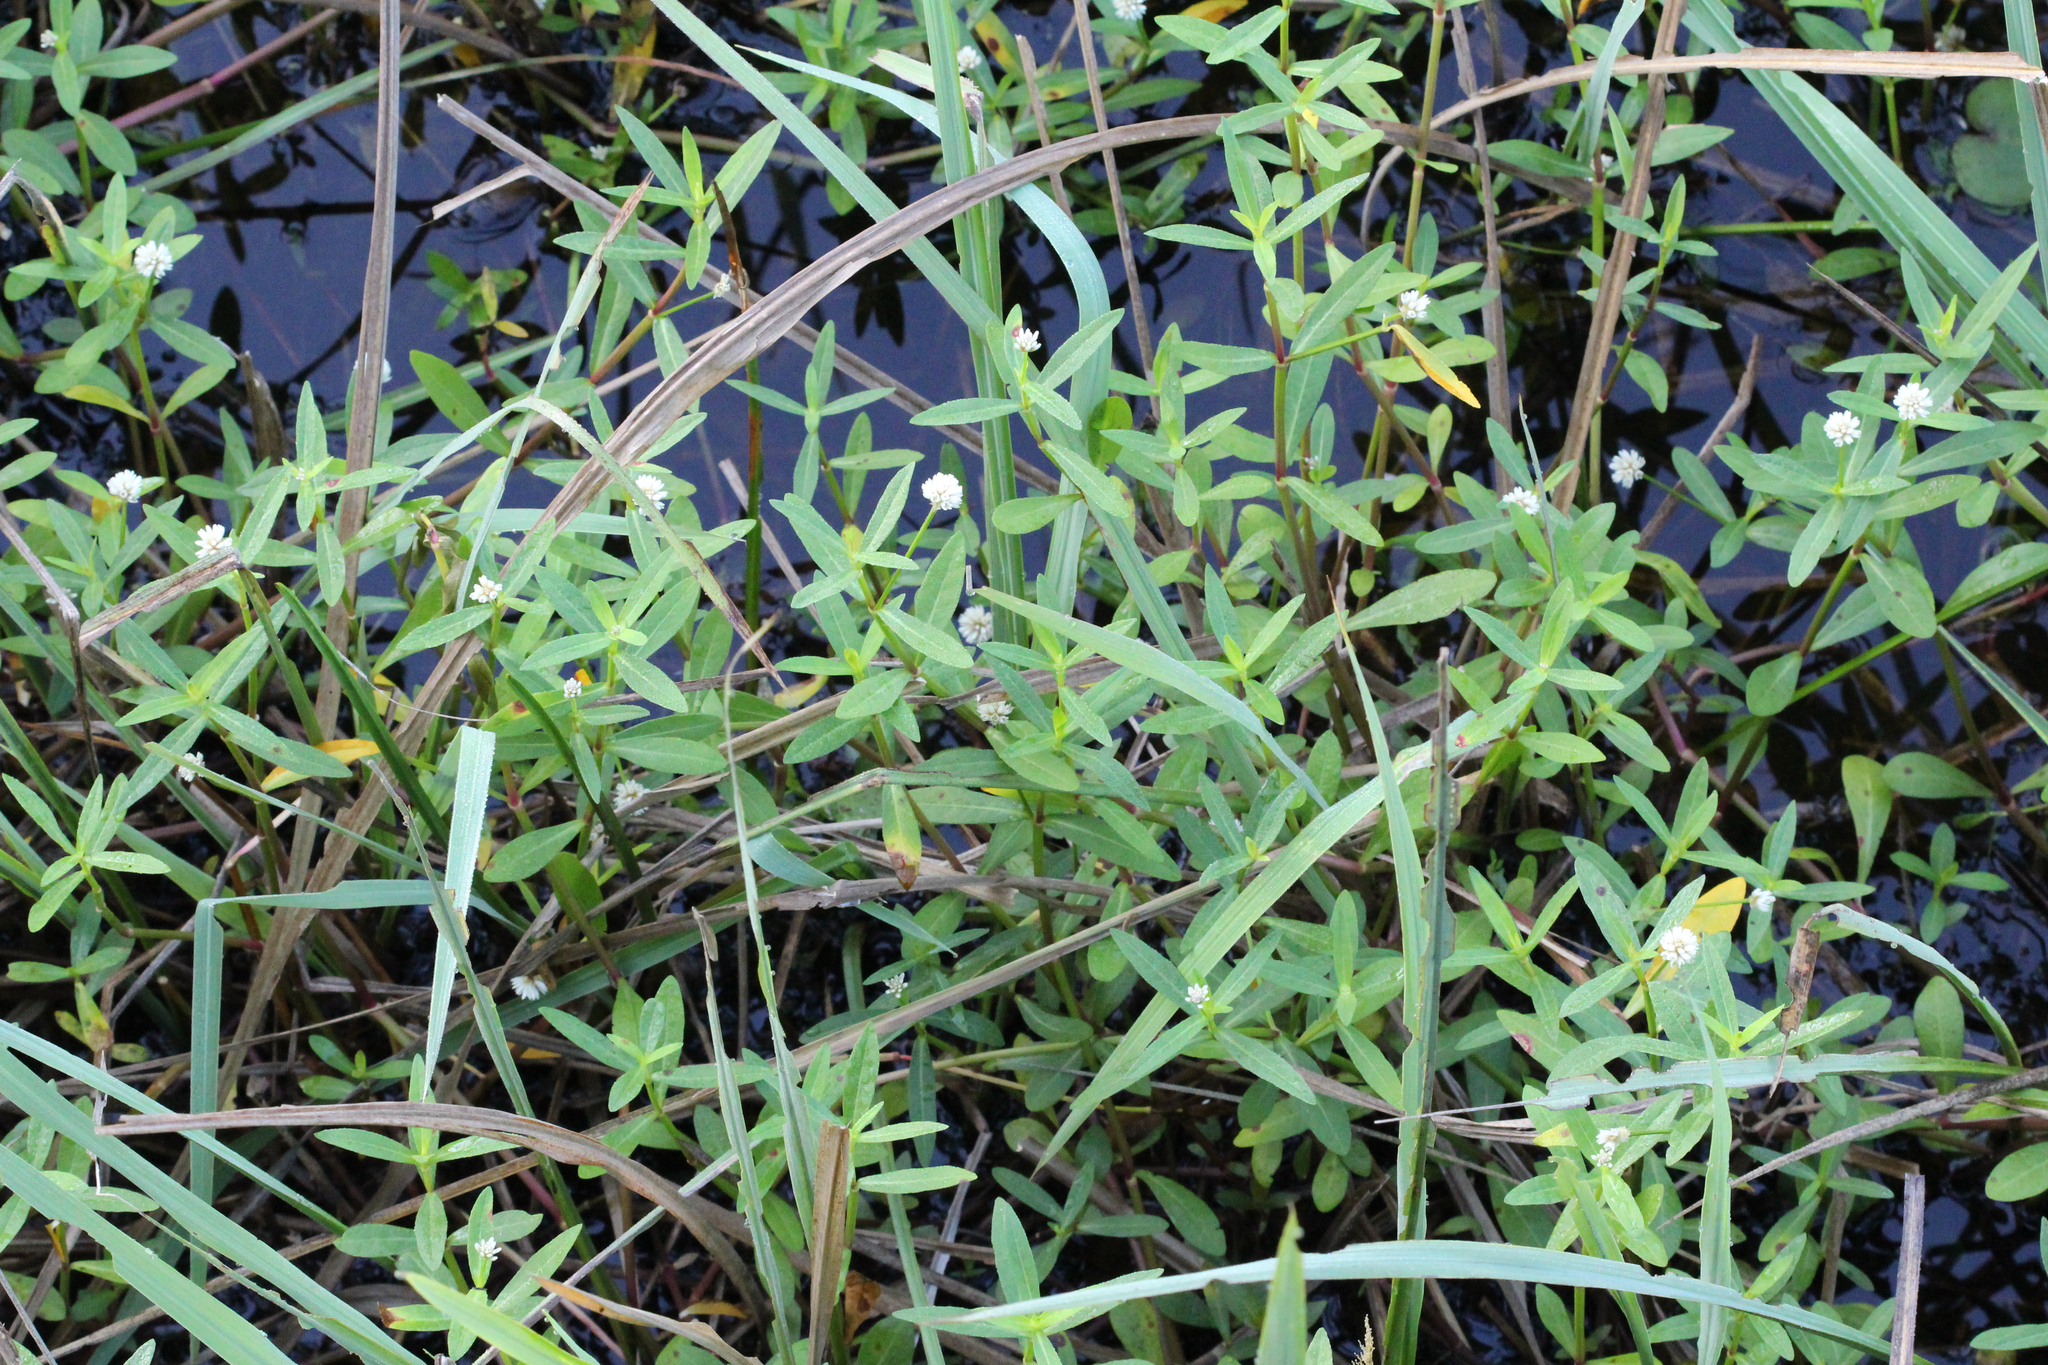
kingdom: Plantae
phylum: Tracheophyta
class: Magnoliopsida
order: Caryophyllales
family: Amaranthaceae
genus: Alternanthera
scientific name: Alternanthera philoxeroides
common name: Alligatorweed
